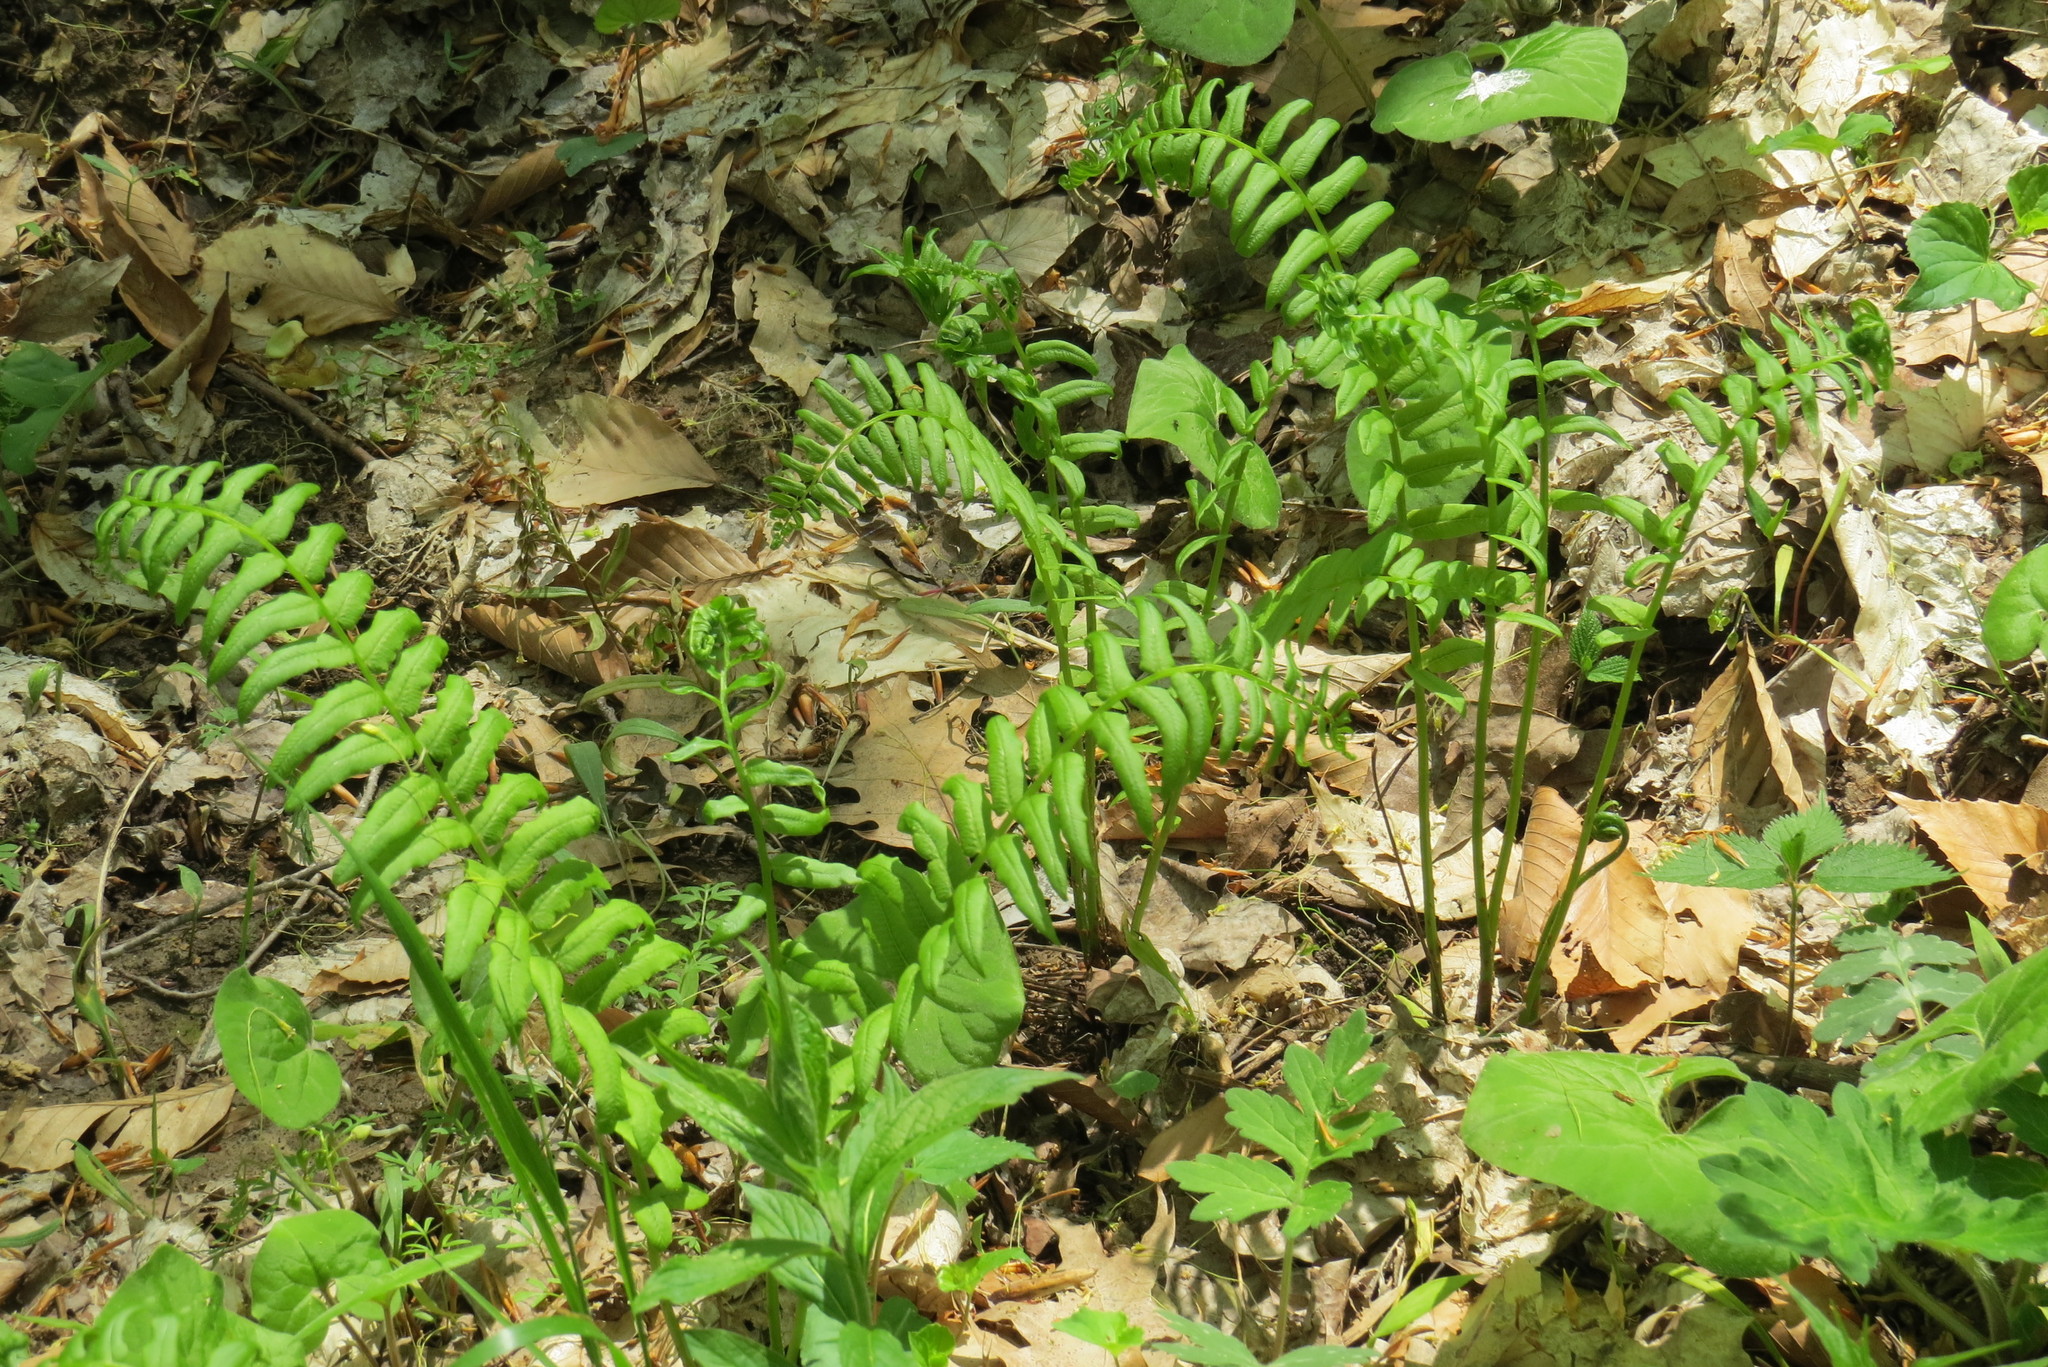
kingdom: Plantae
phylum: Tracheophyta
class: Polypodiopsida
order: Polypodiales
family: Diplaziopsidaceae
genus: Homalosorus
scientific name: Homalosorus pycnocarpos
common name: Glade fern
